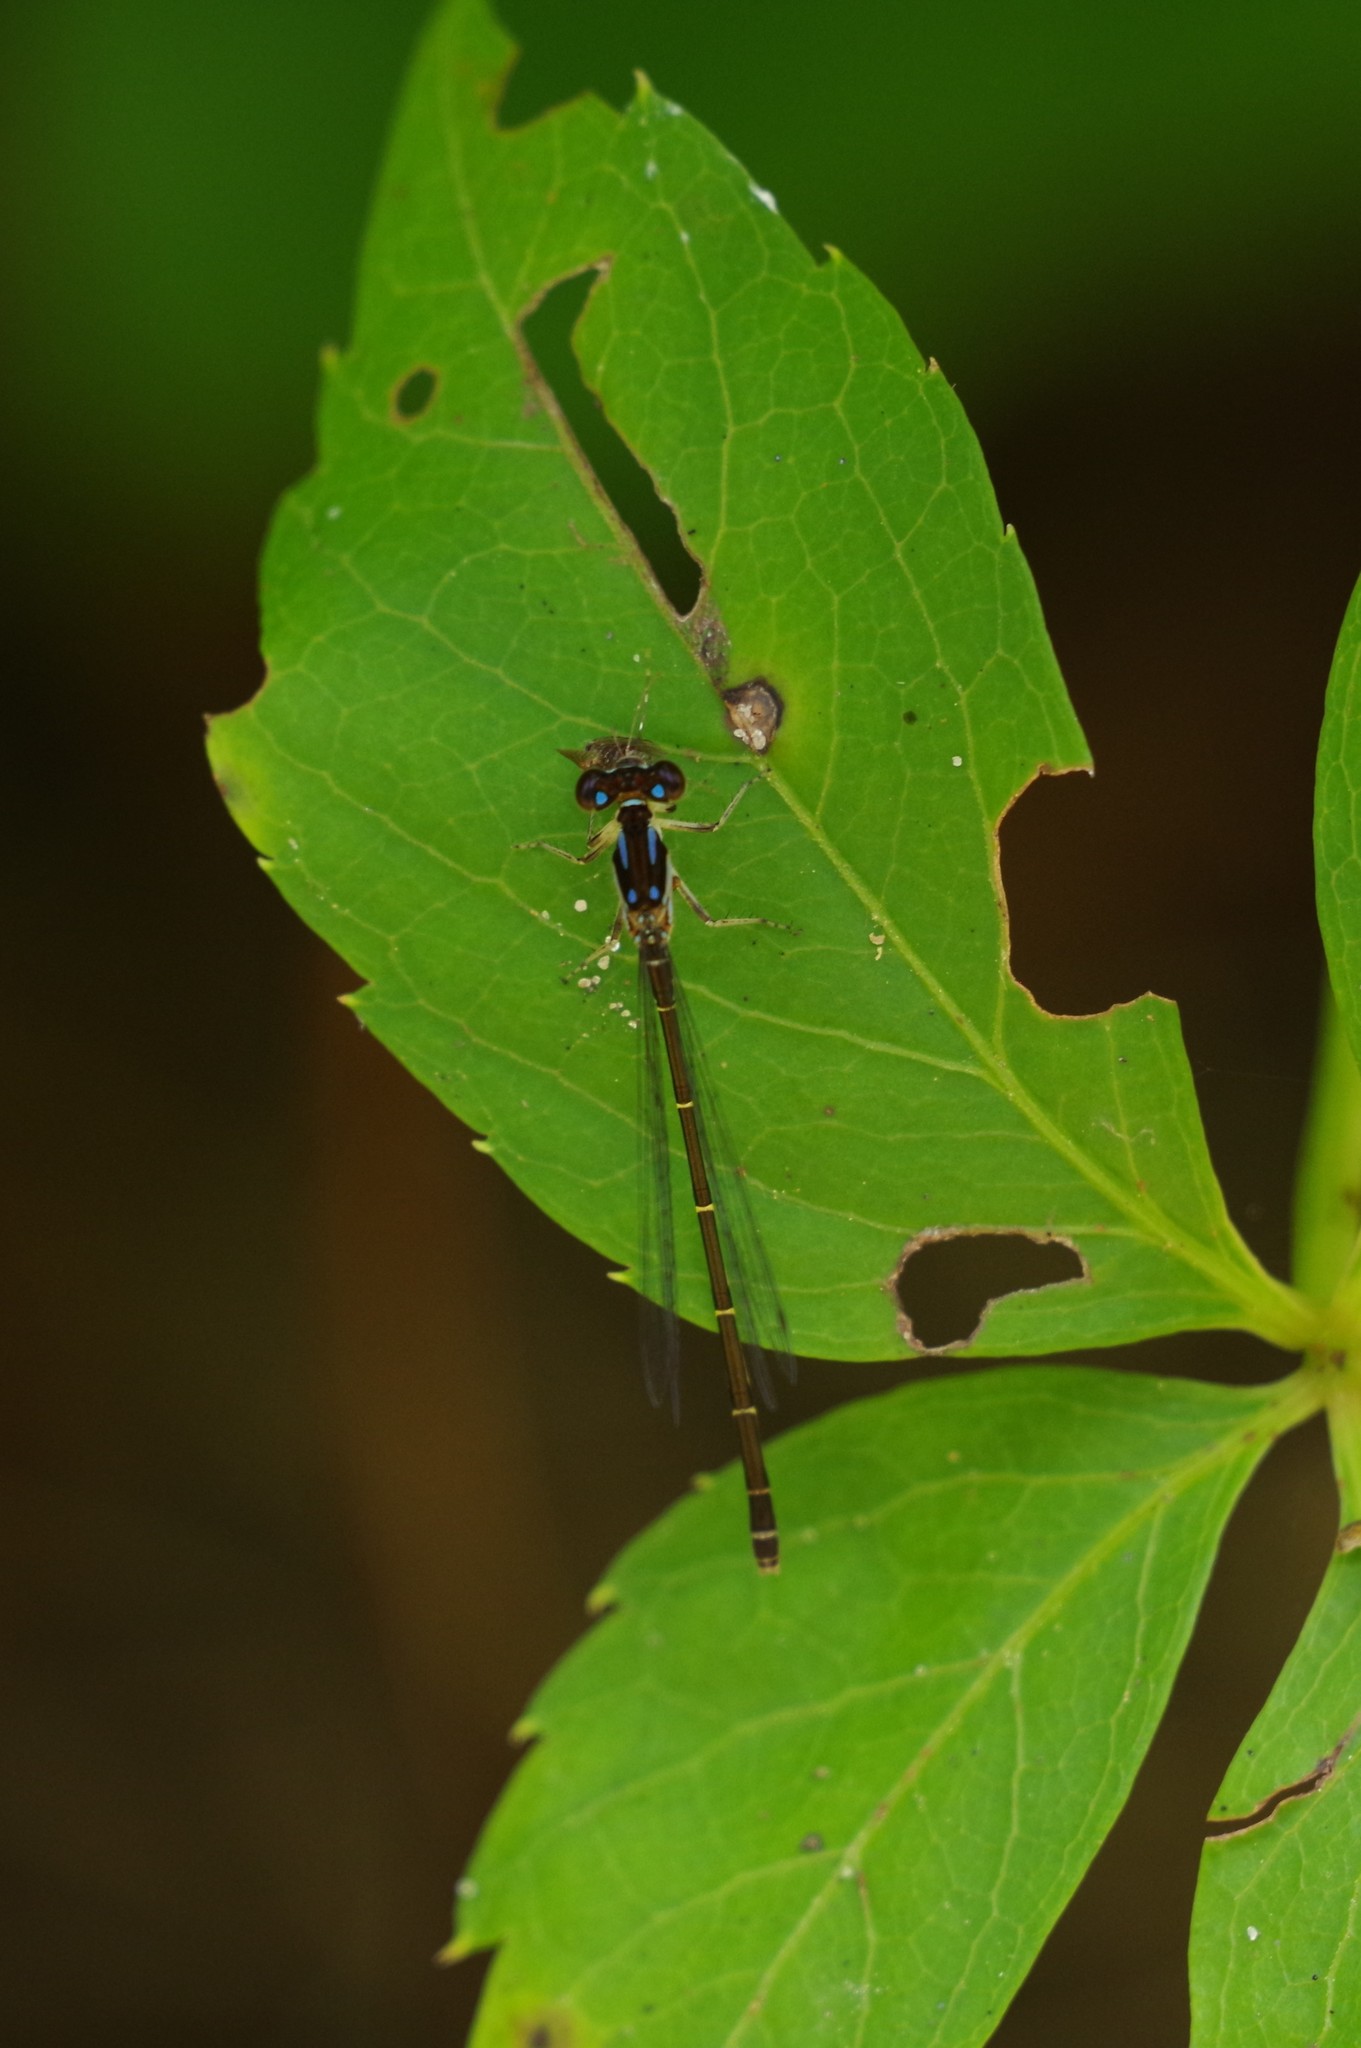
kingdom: Animalia
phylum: Arthropoda
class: Insecta
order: Odonata
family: Coenagrionidae
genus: Ischnura
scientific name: Ischnura posita
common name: Fragile forktail
